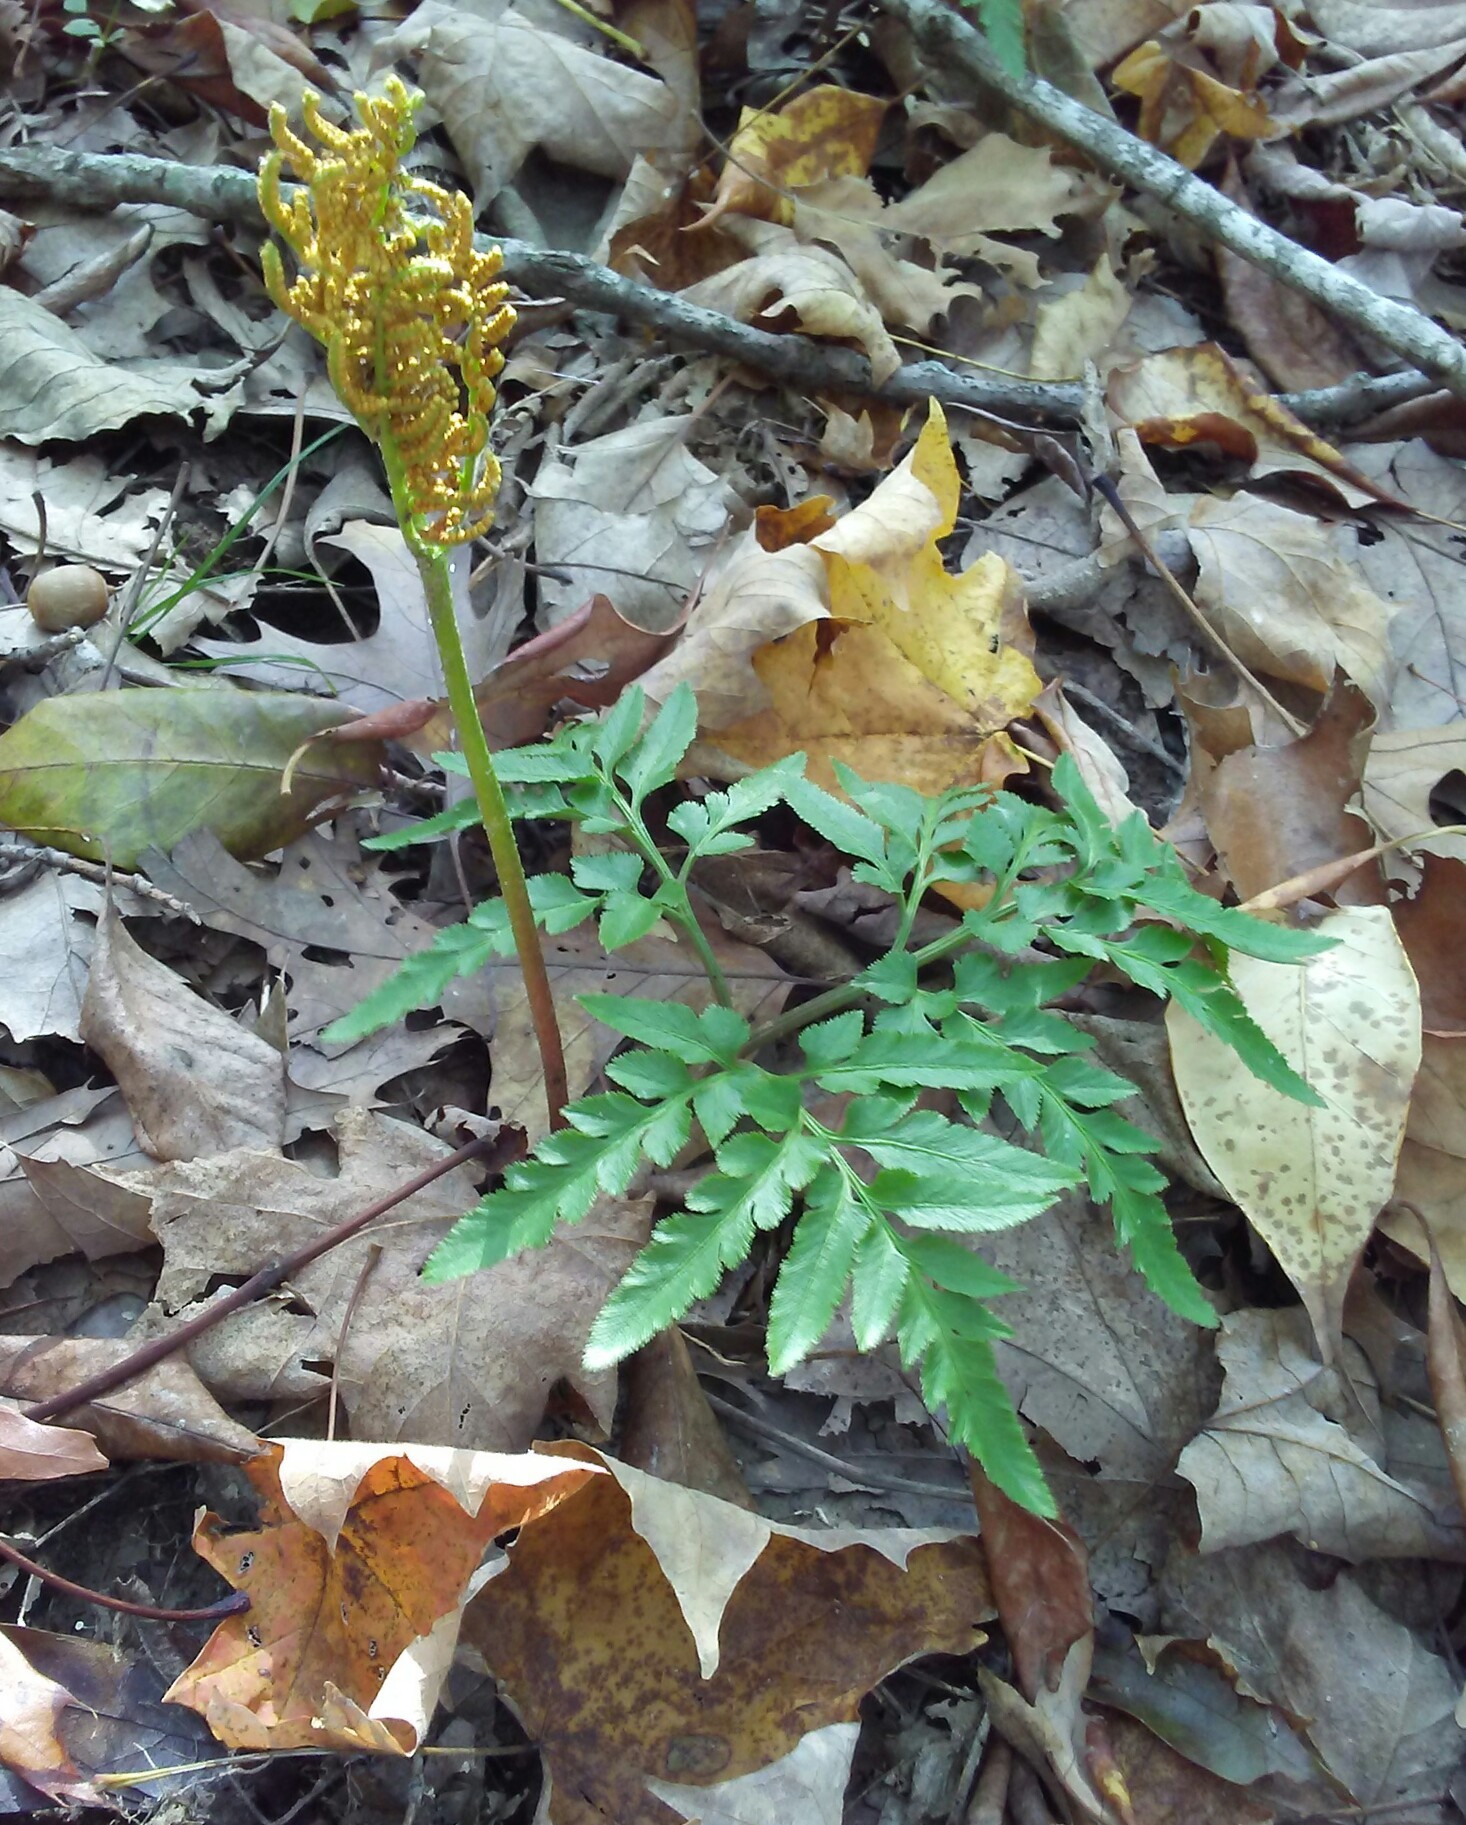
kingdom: Plantae
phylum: Tracheophyta
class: Polypodiopsida
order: Ophioglossales
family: Ophioglossaceae
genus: Sceptridium
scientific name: Sceptridium dissectum
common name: Cut-leaved grapefern
